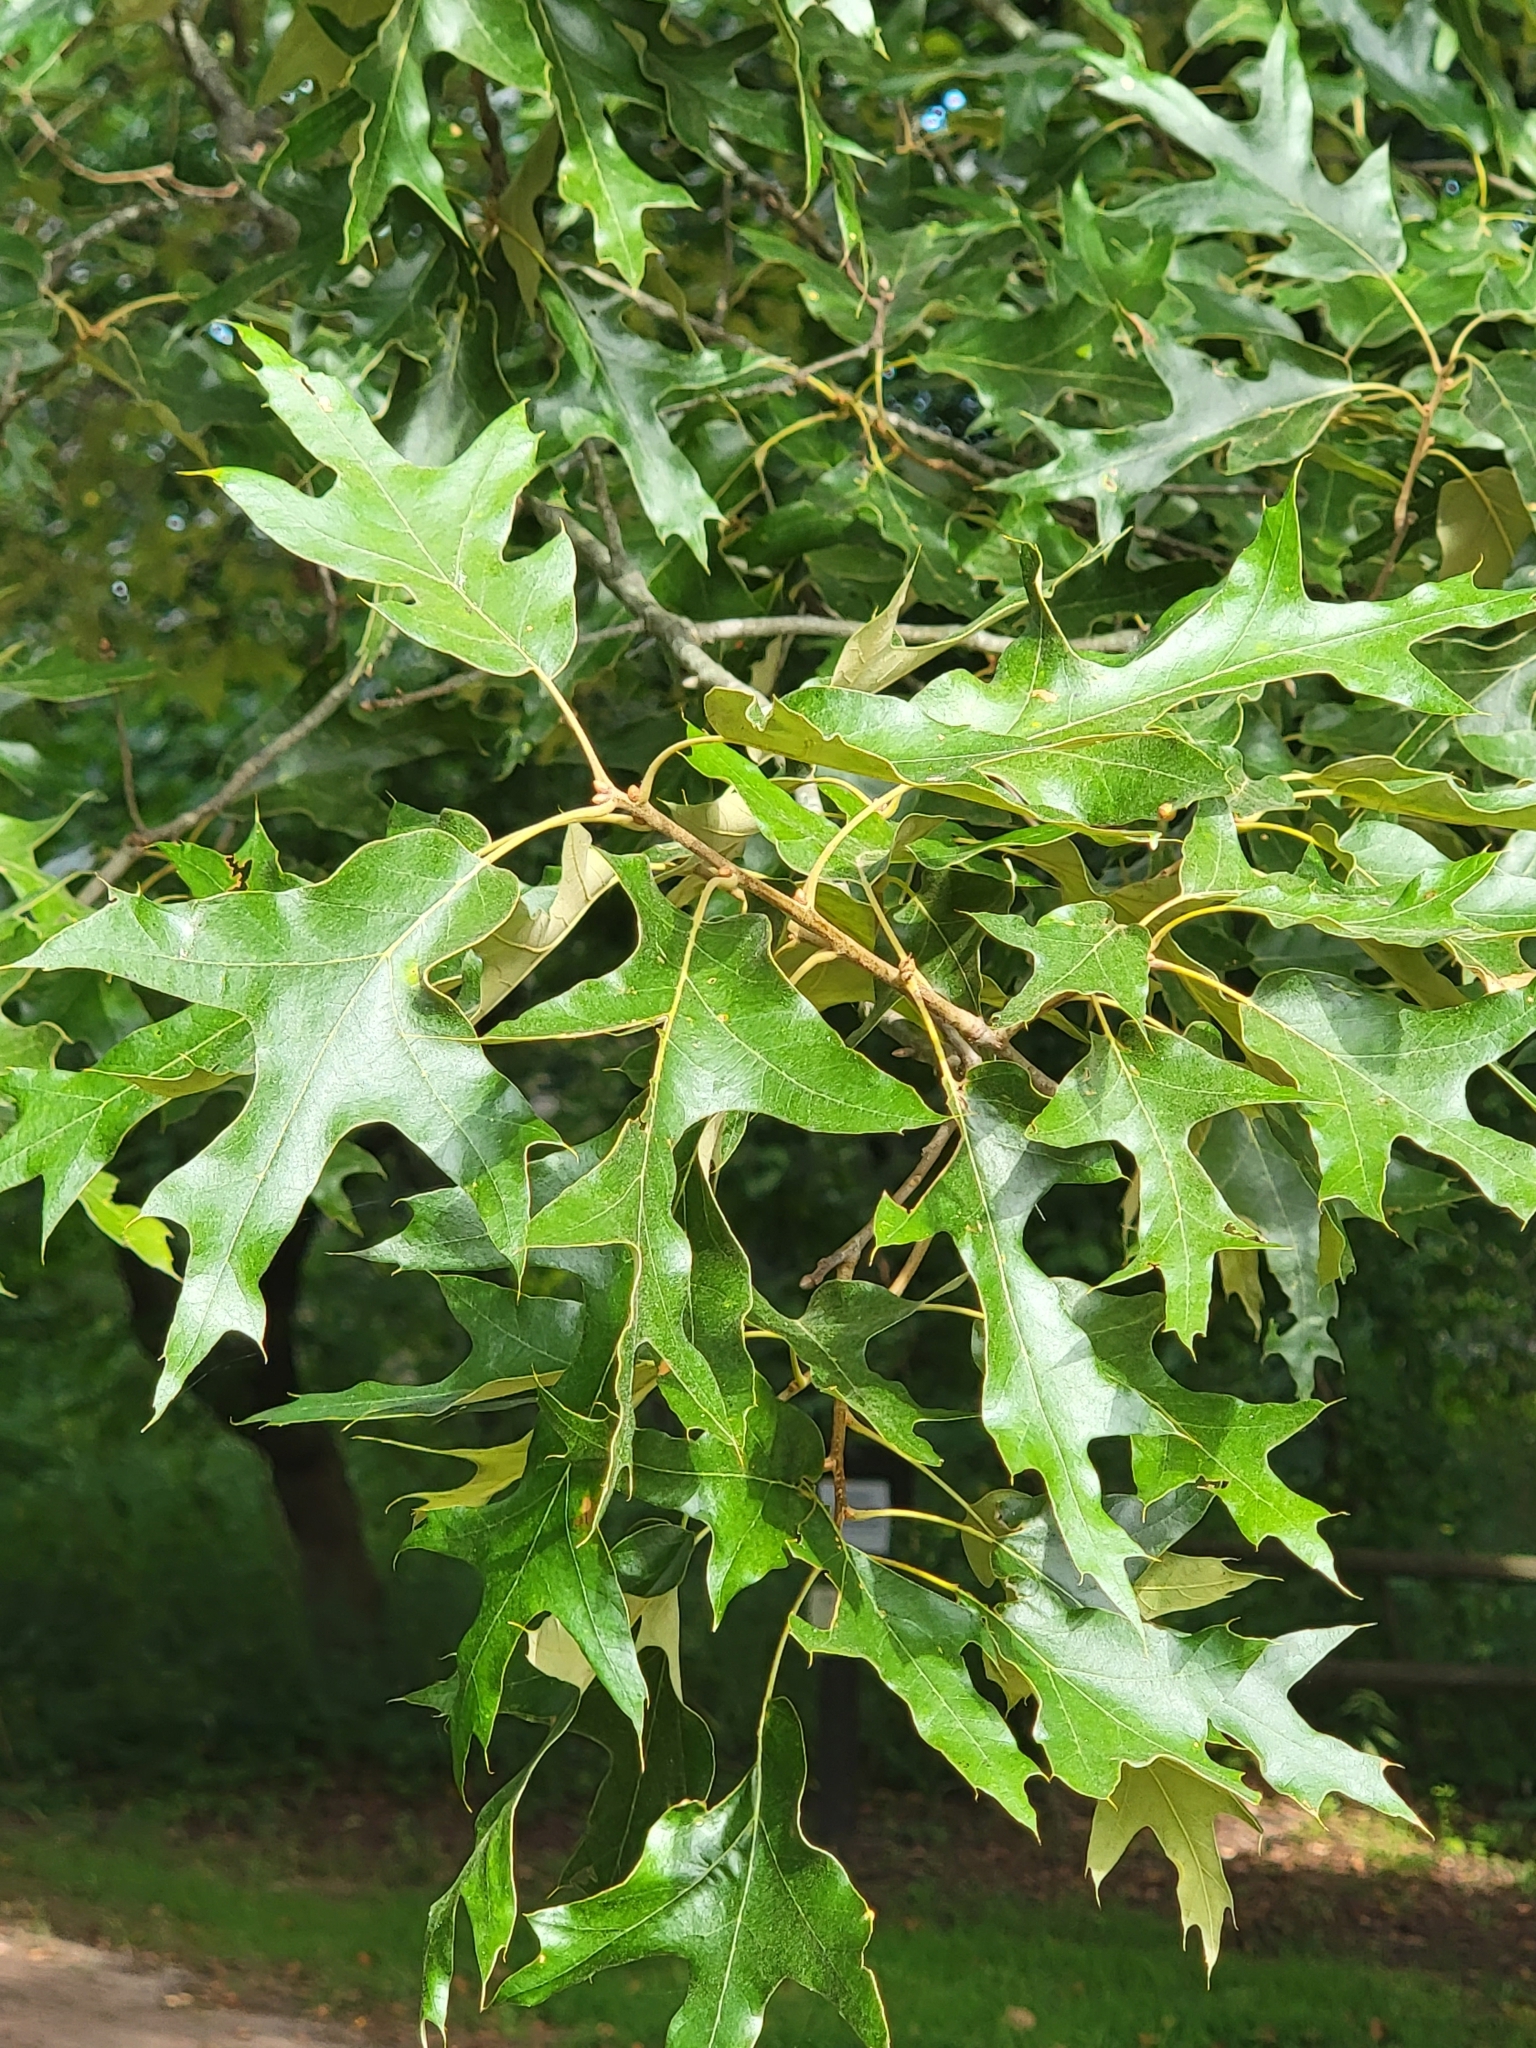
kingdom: Plantae
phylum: Tracheophyta
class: Magnoliopsida
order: Fagales
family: Fagaceae
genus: Quercus
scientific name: Quercus falcata
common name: Southern red oak
